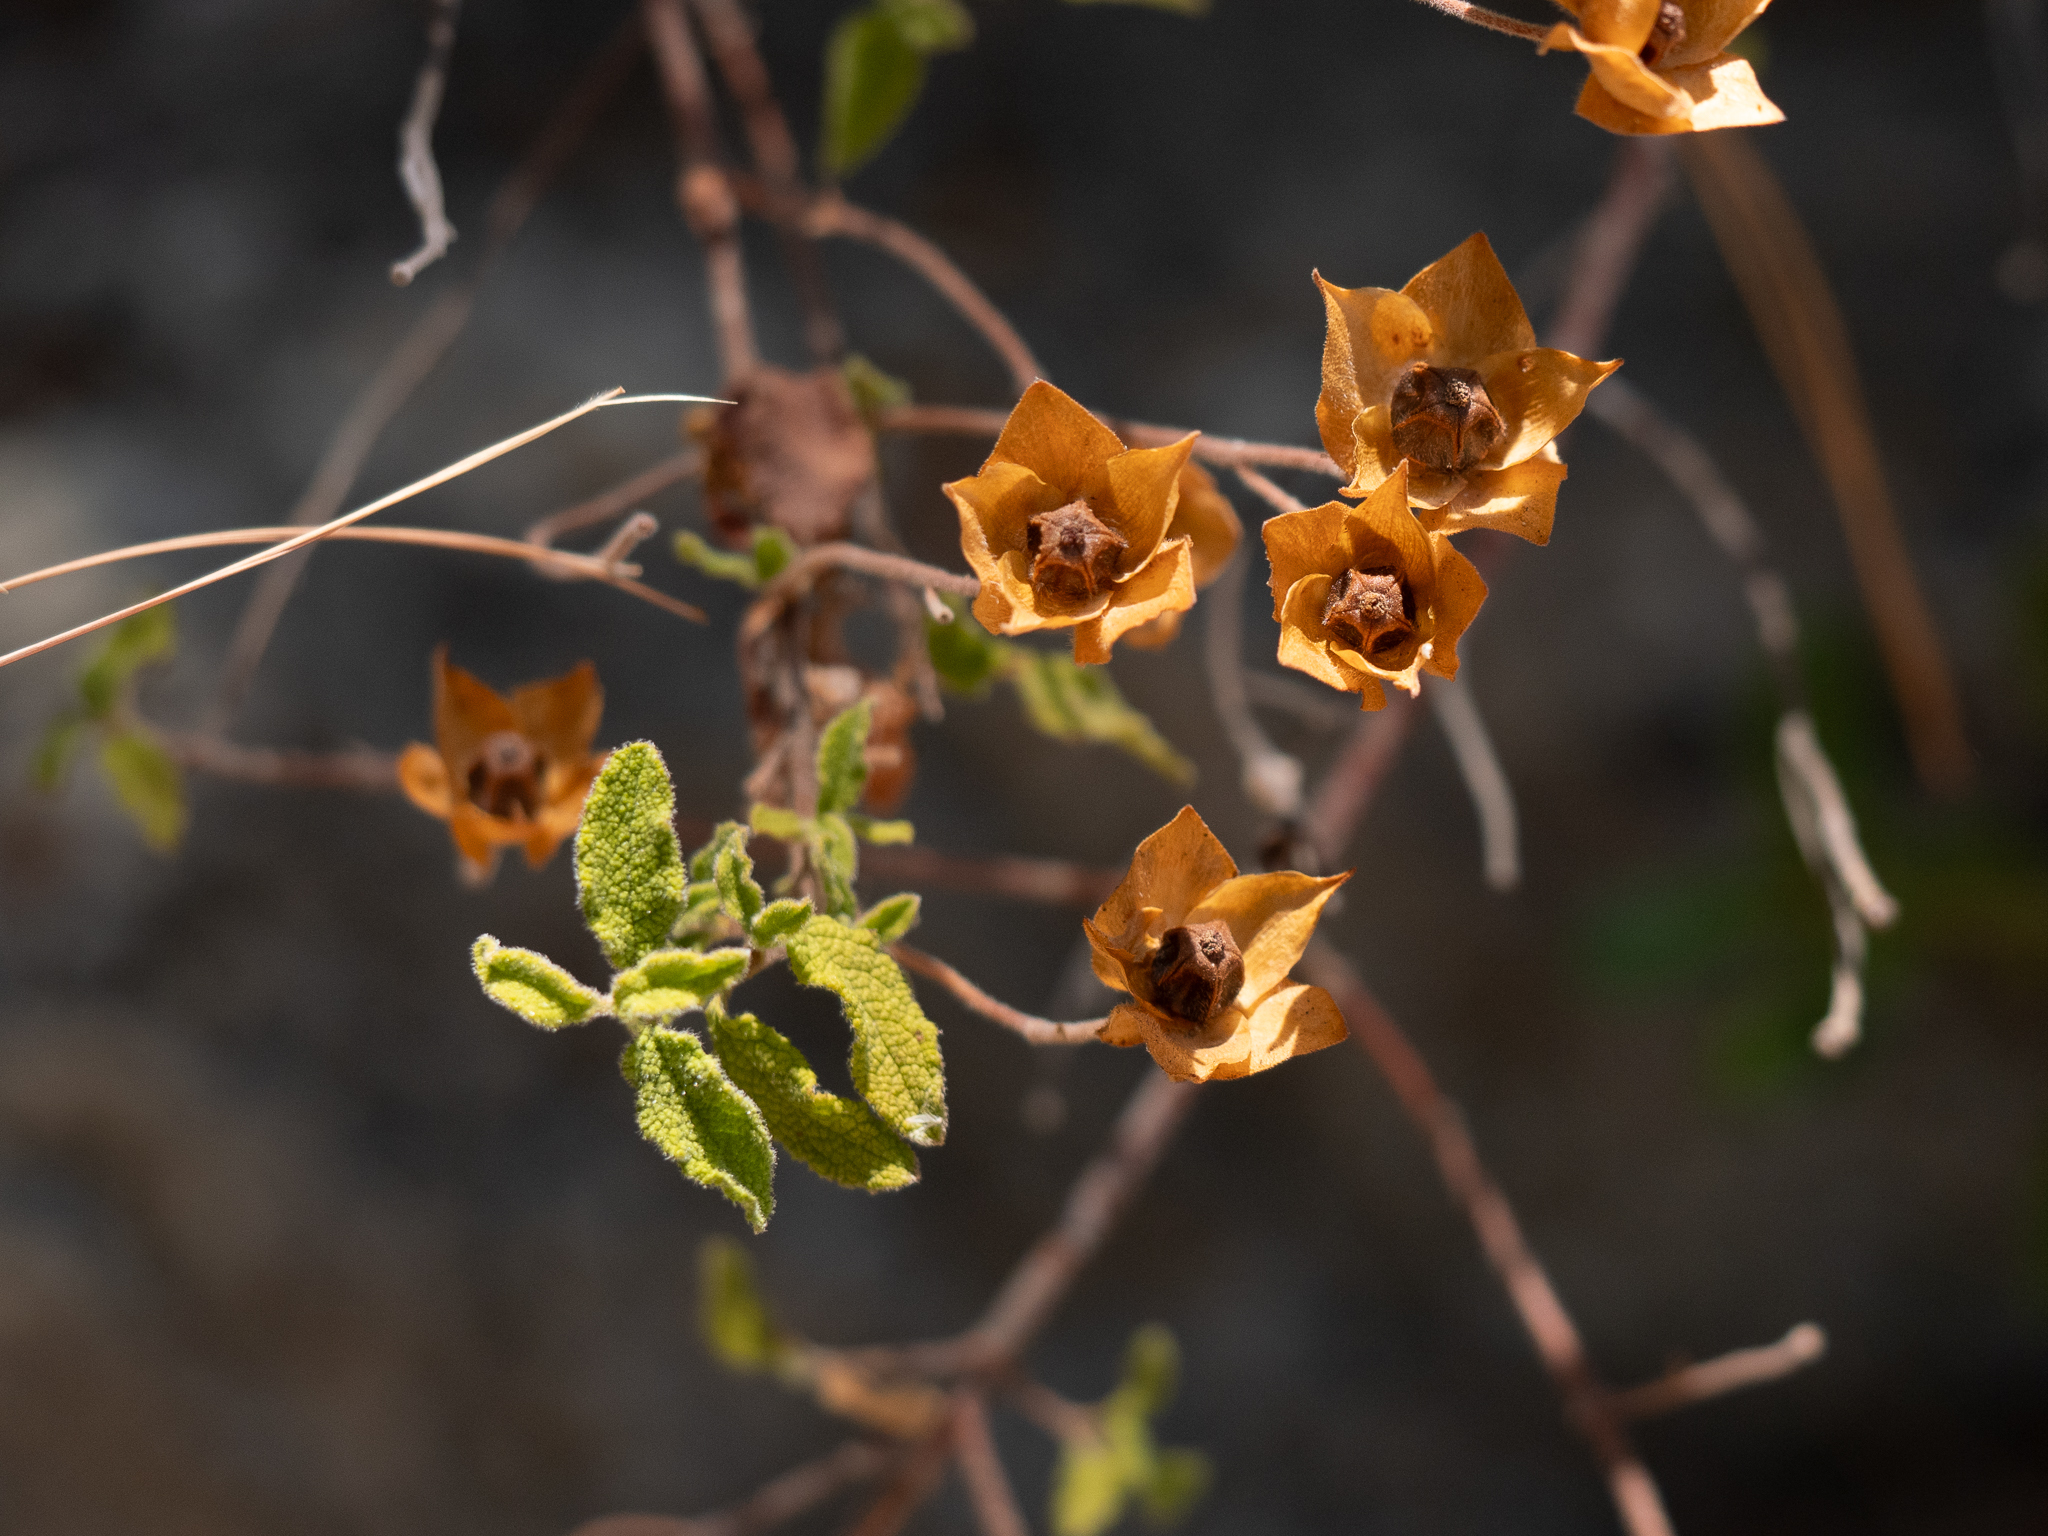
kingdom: Plantae
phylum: Tracheophyta
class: Magnoliopsida
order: Malvales
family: Cistaceae
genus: Cistus
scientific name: Cistus salviifolius
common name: Salvia cistus
